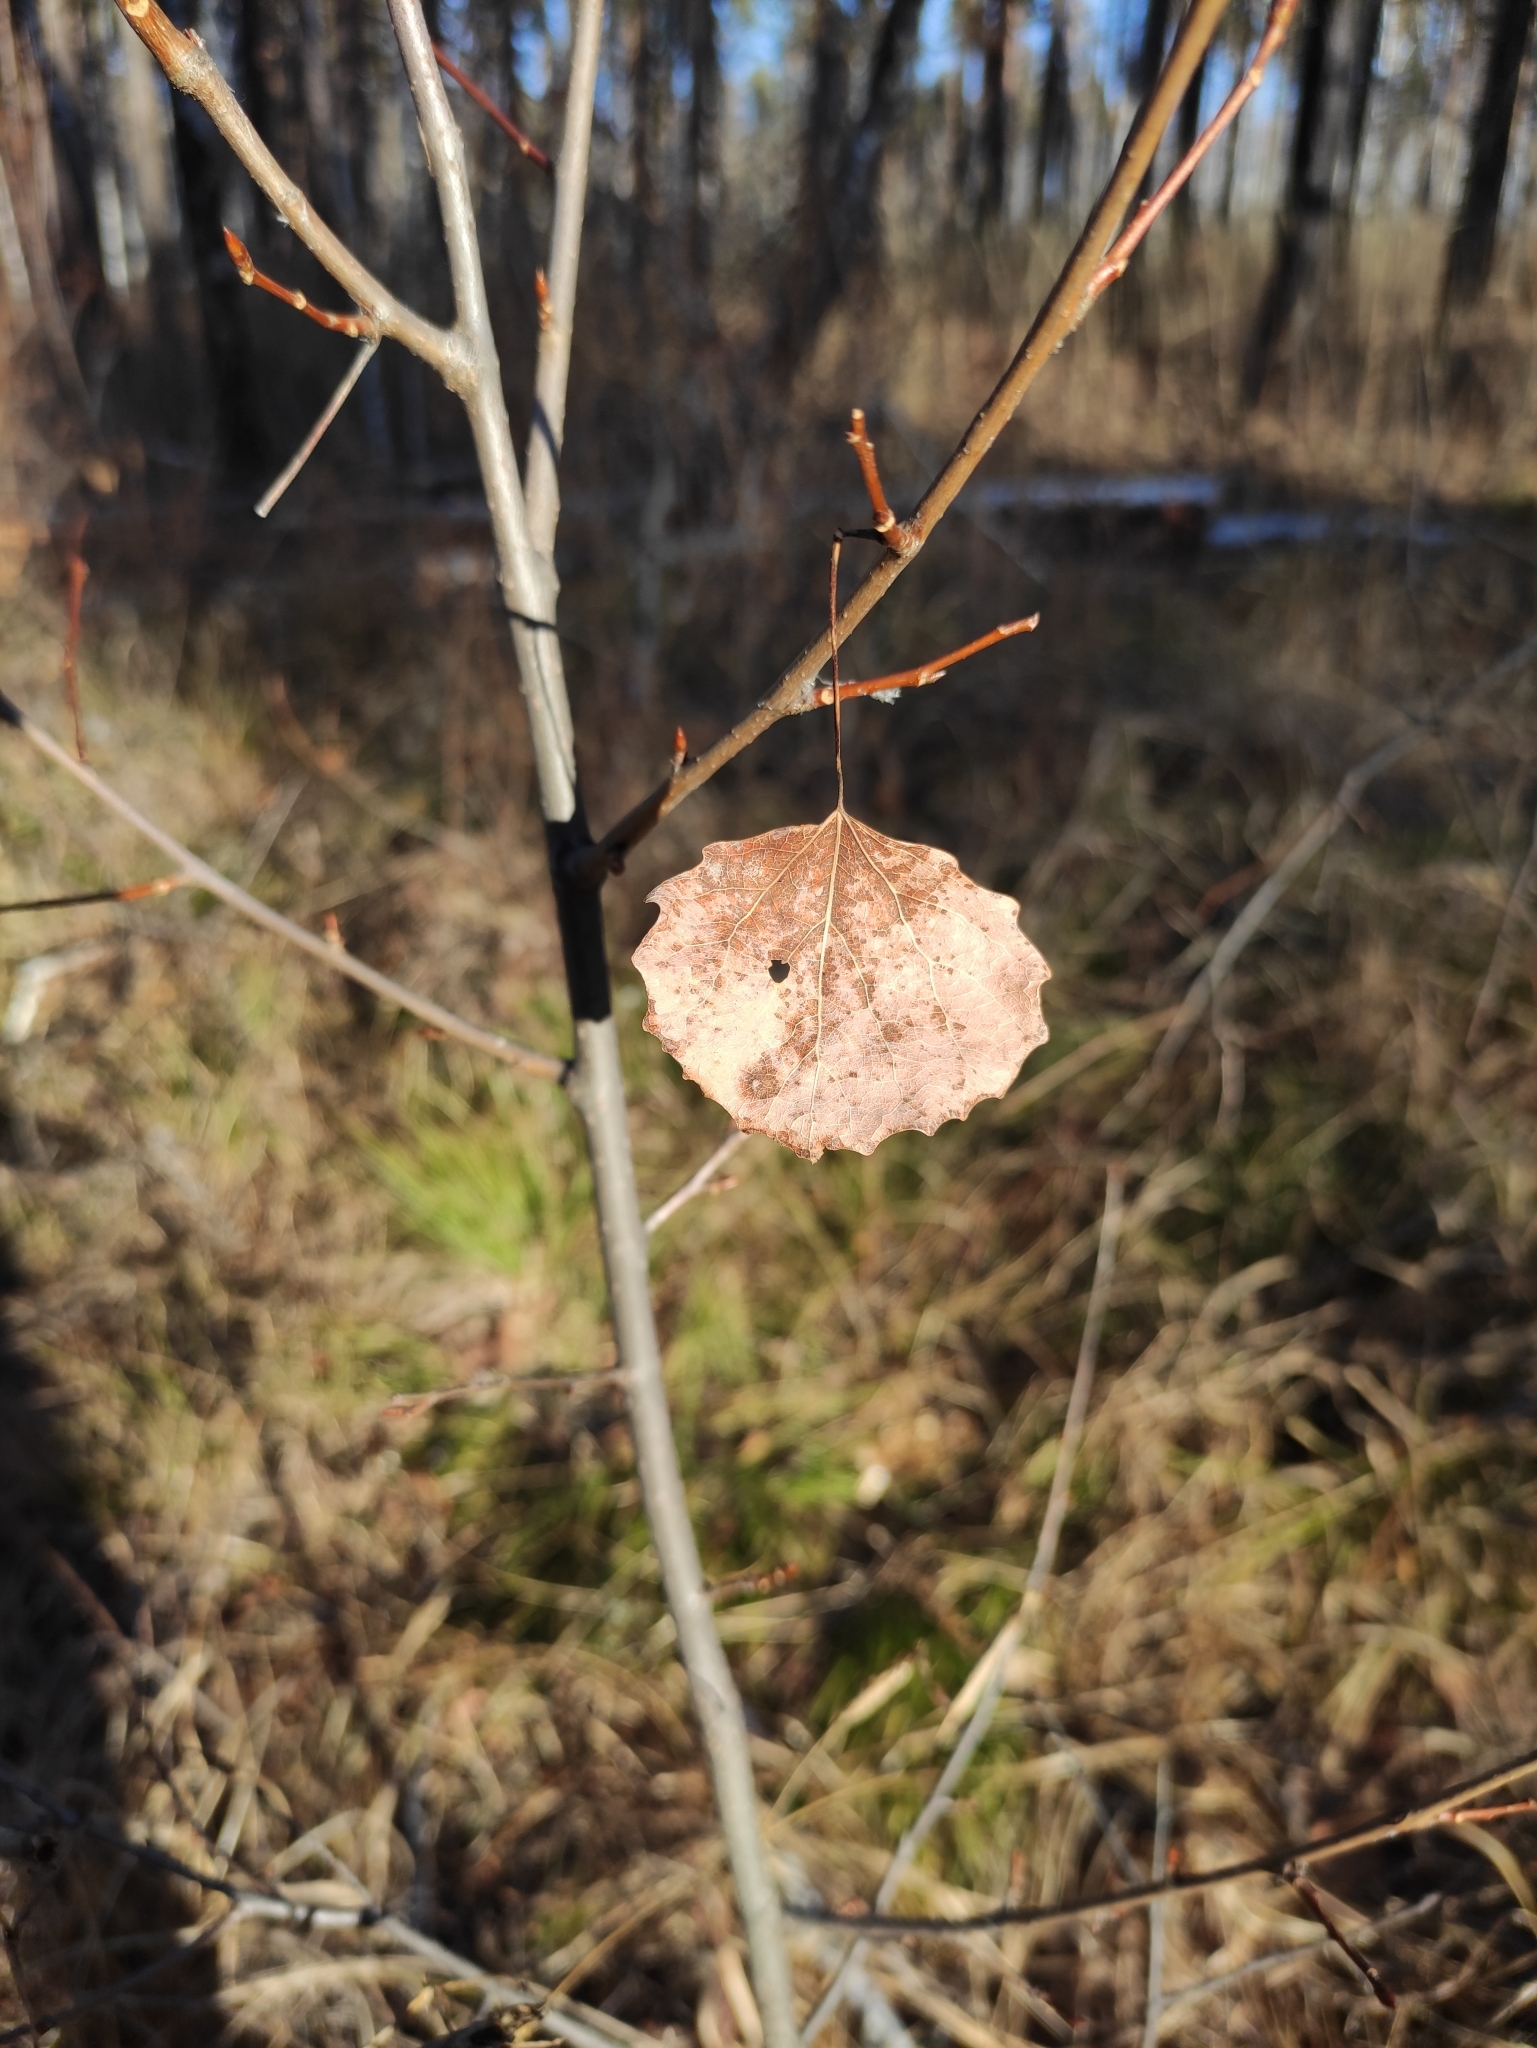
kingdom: Plantae
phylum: Tracheophyta
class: Magnoliopsida
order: Malpighiales
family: Salicaceae
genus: Populus
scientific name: Populus tremula
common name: European aspen
